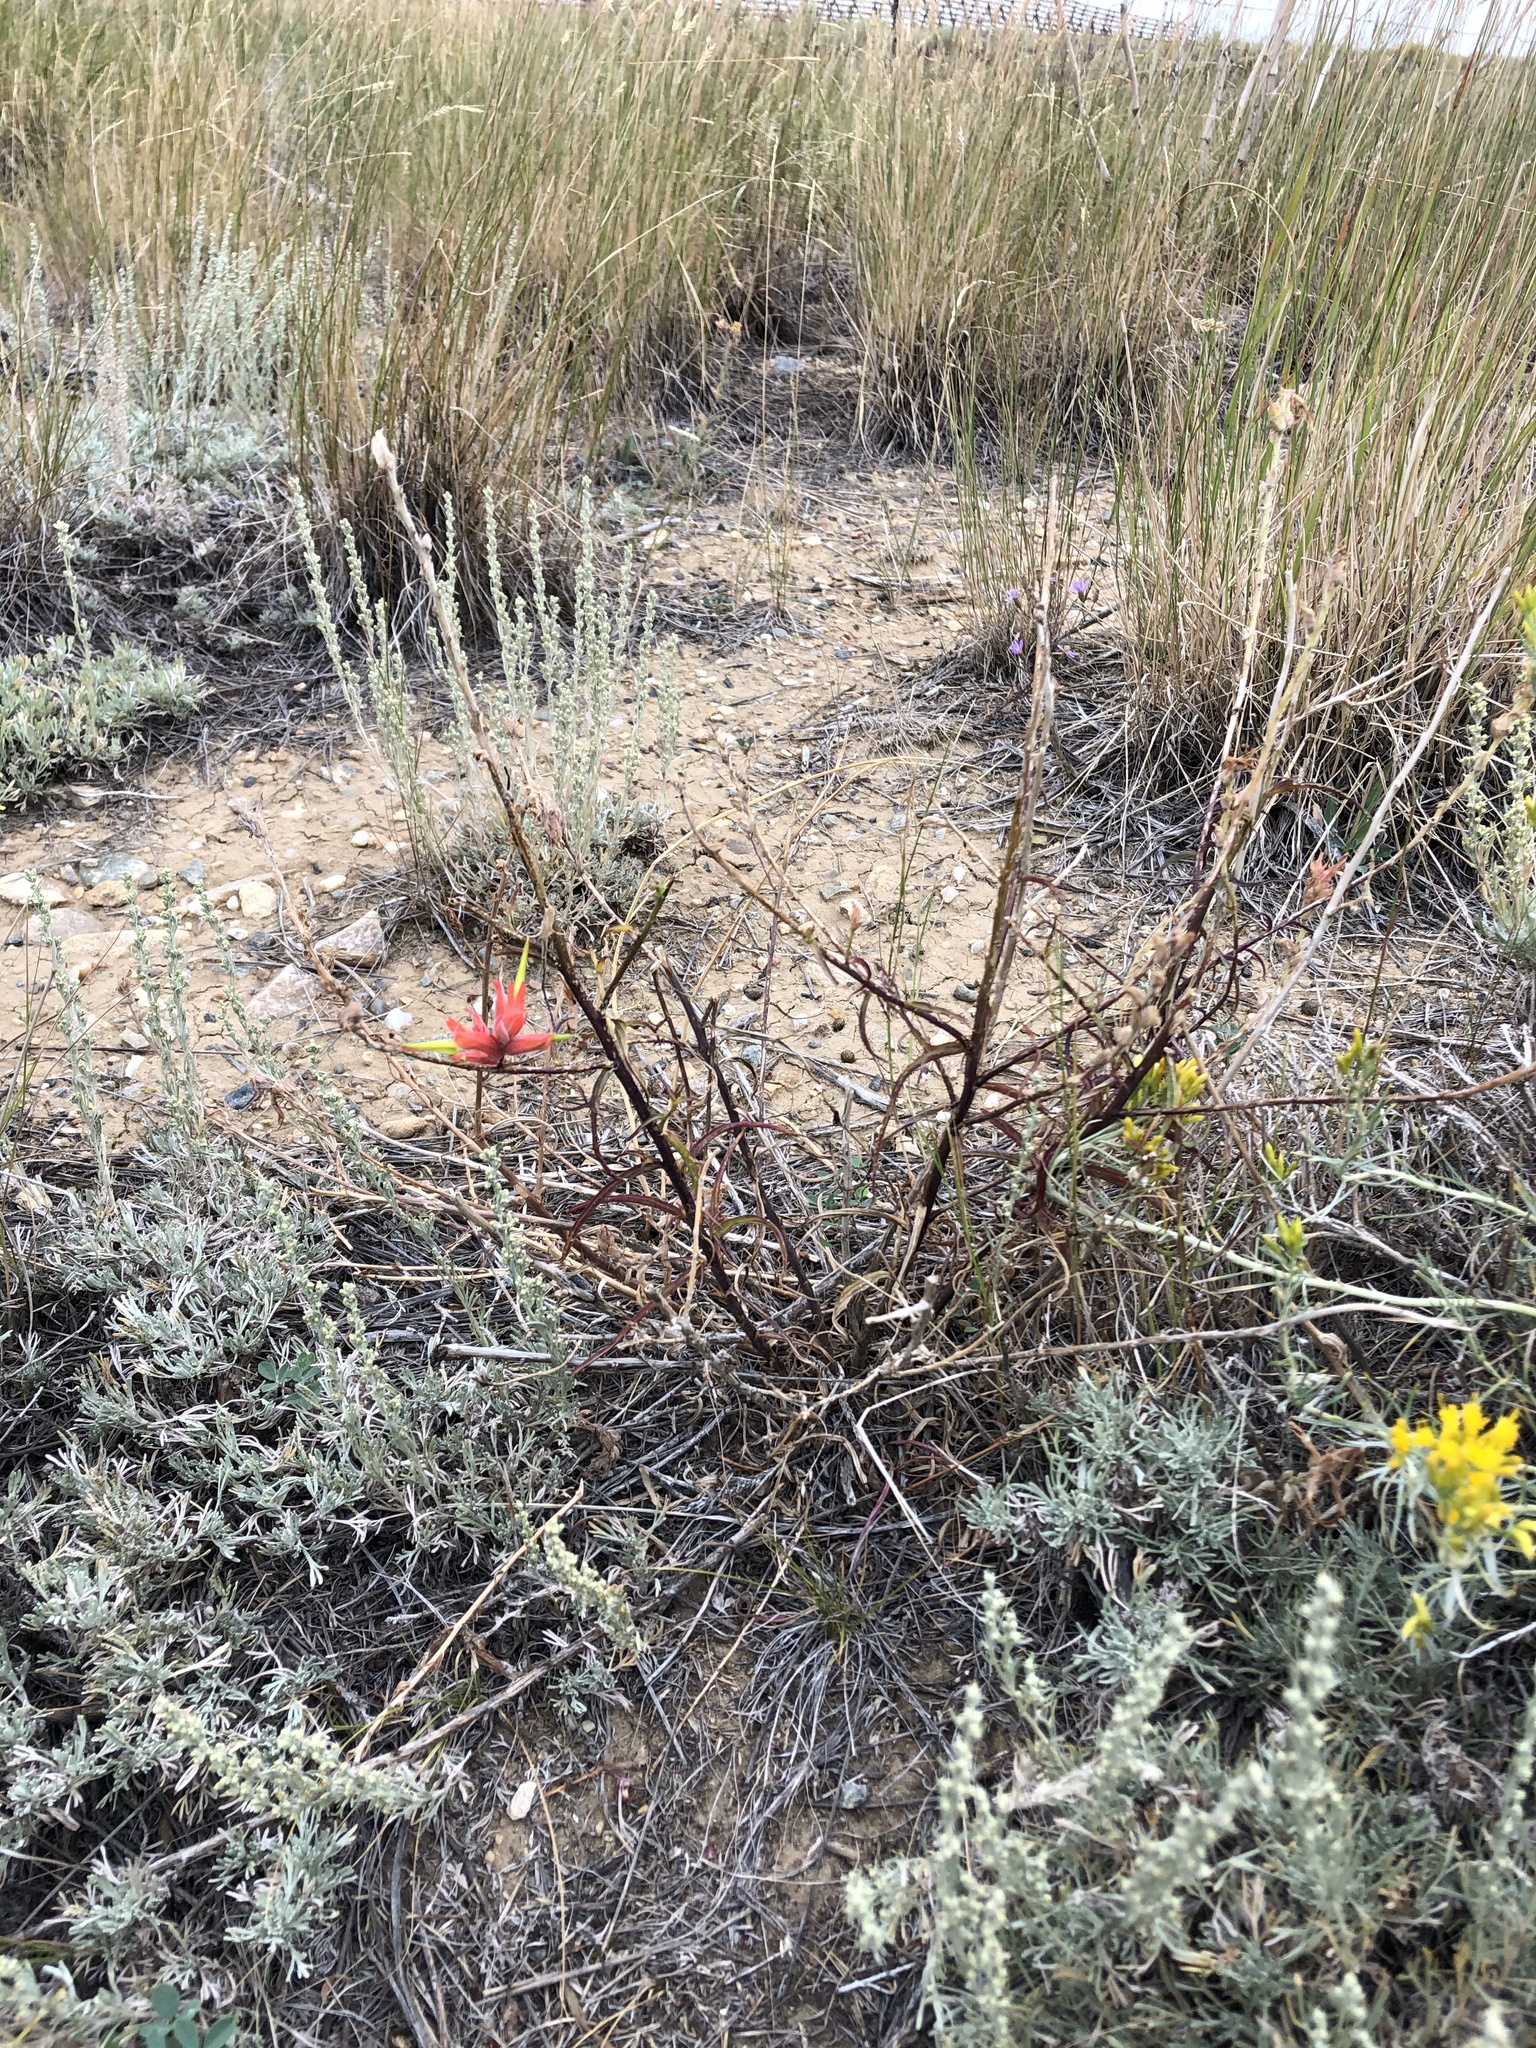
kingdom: Plantae
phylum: Tracheophyta
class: Magnoliopsida
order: Lamiales
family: Orobanchaceae
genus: Castilleja
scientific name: Castilleja linariifolia
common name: Wyoming paintbrush
